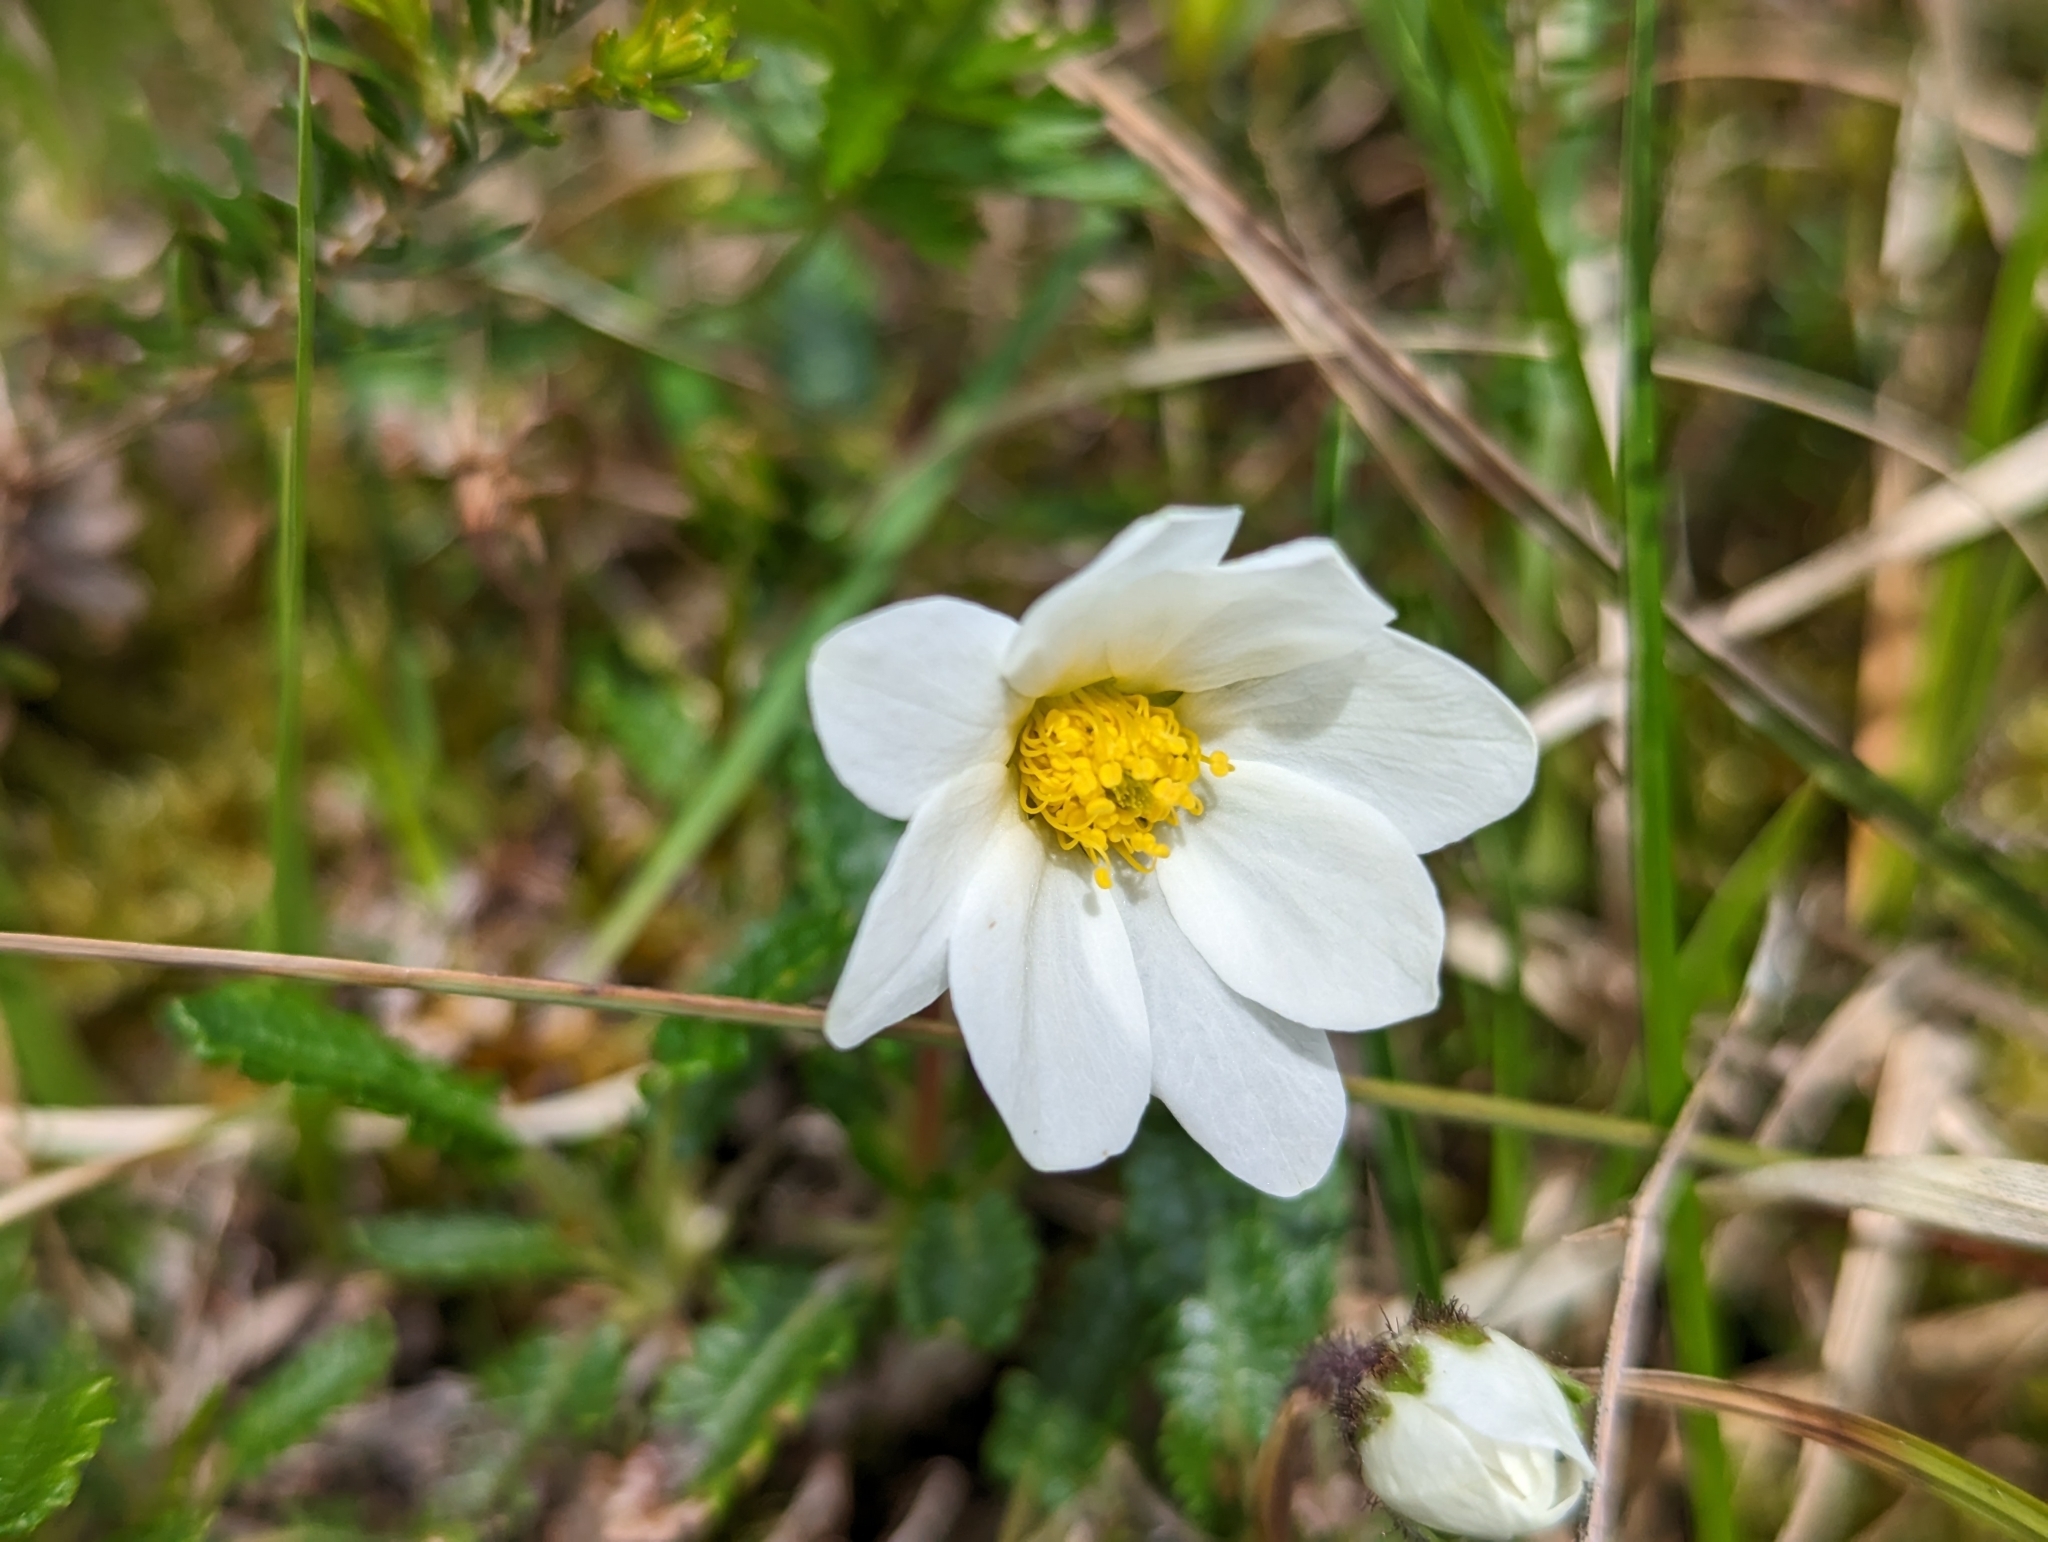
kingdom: Plantae
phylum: Tracheophyta
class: Magnoliopsida
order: Rosales
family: Rosaceae
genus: Dryas
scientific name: Dryas octopetala
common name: Eight-petal mountain-avens
